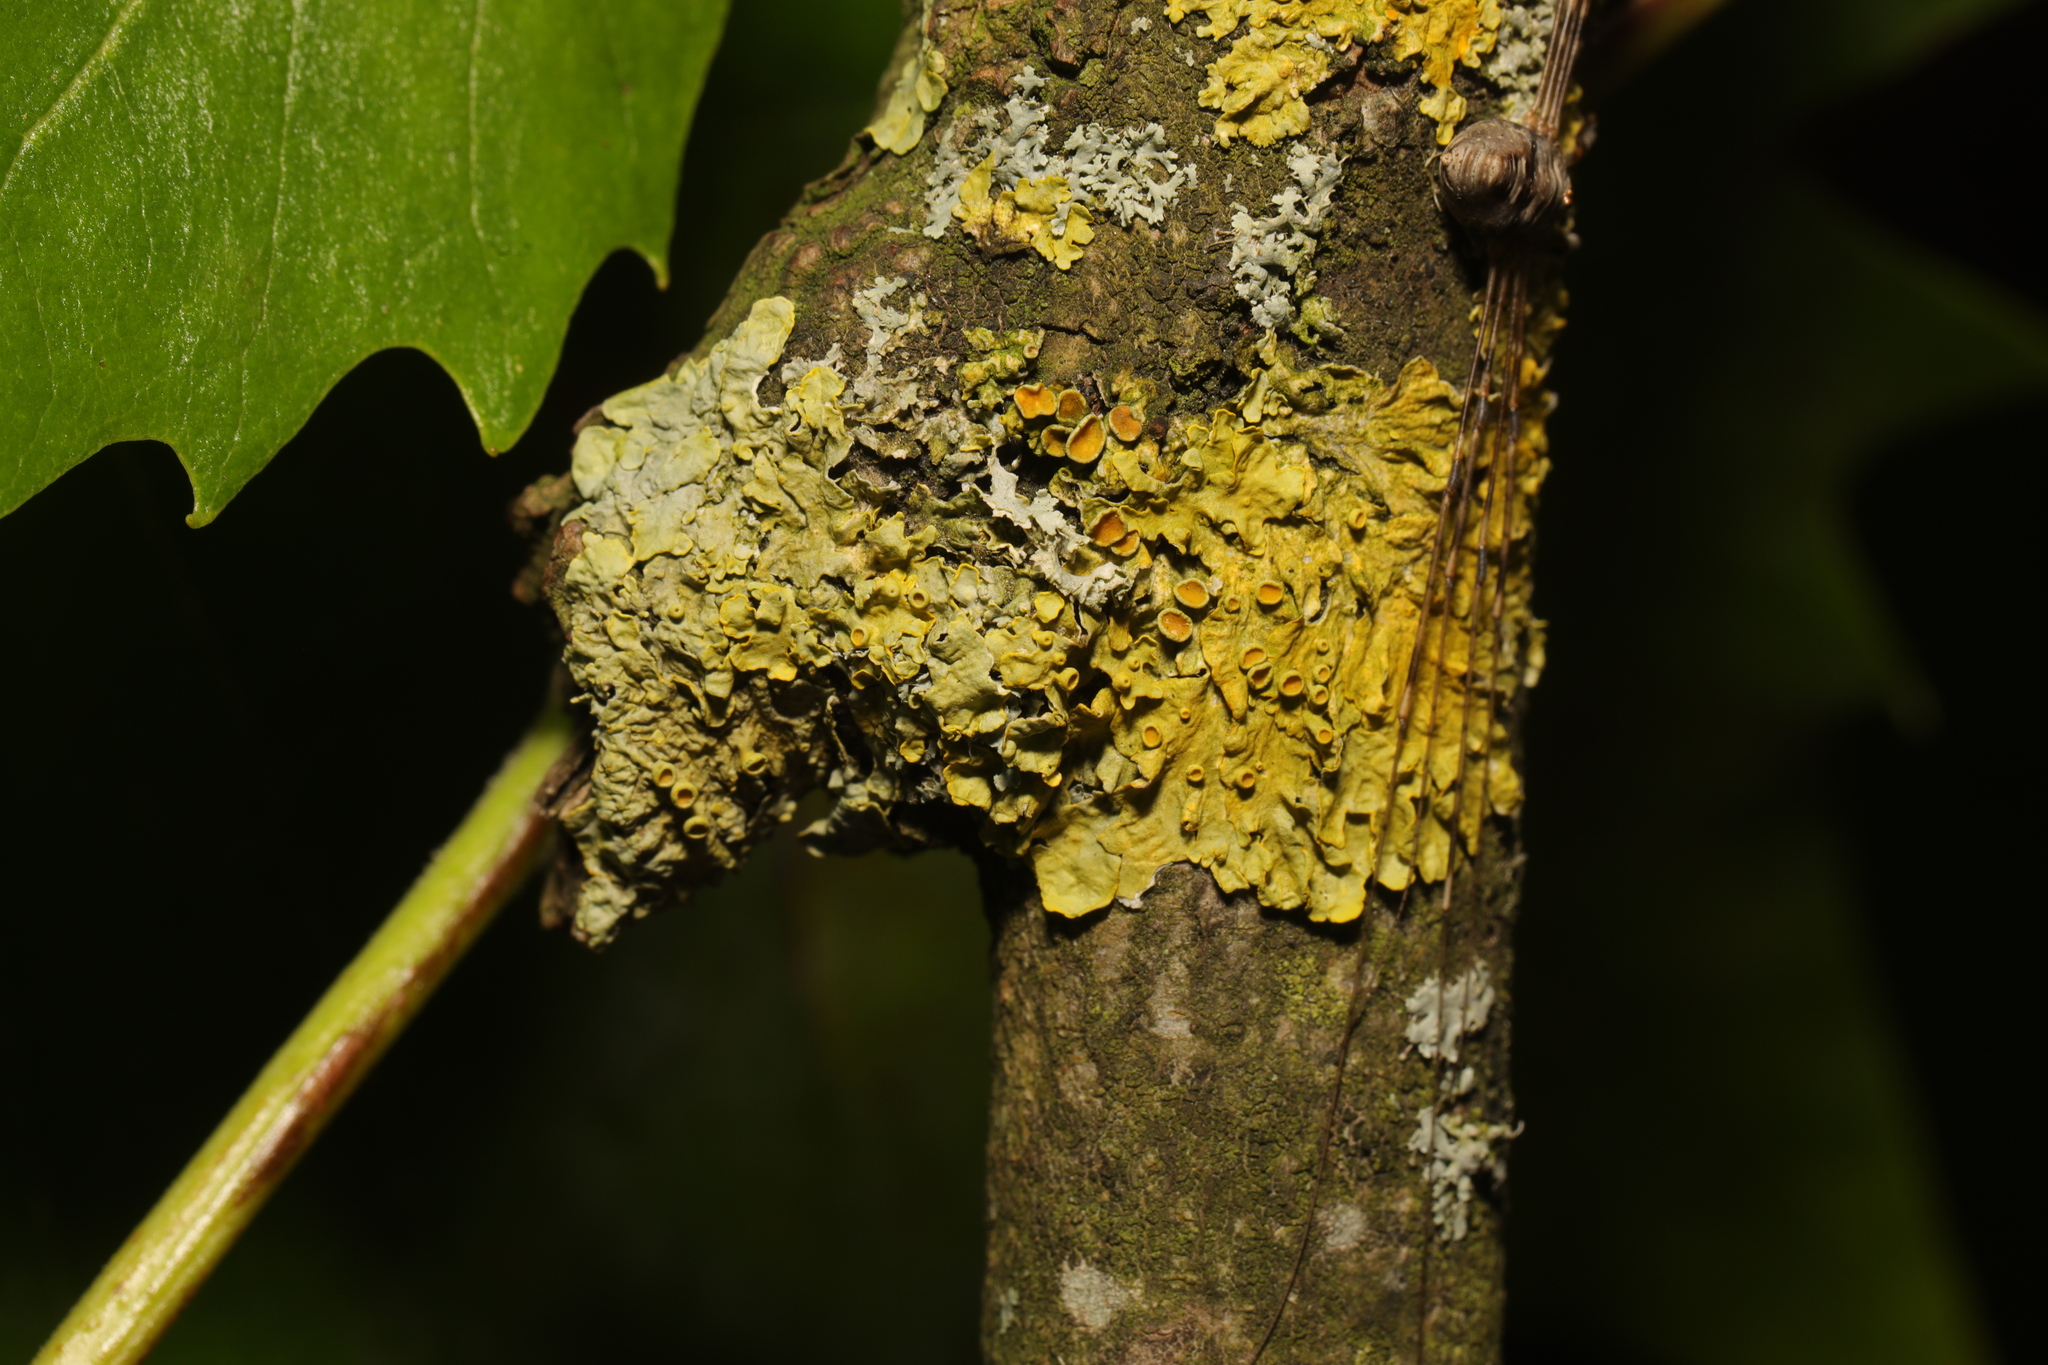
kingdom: Fungi
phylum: Ascomycota
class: Lecanoromycetes
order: Teloschistales
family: Teloschistaceae
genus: Xanthoria
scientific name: Xanthoria parietina
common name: Common orange lichen
